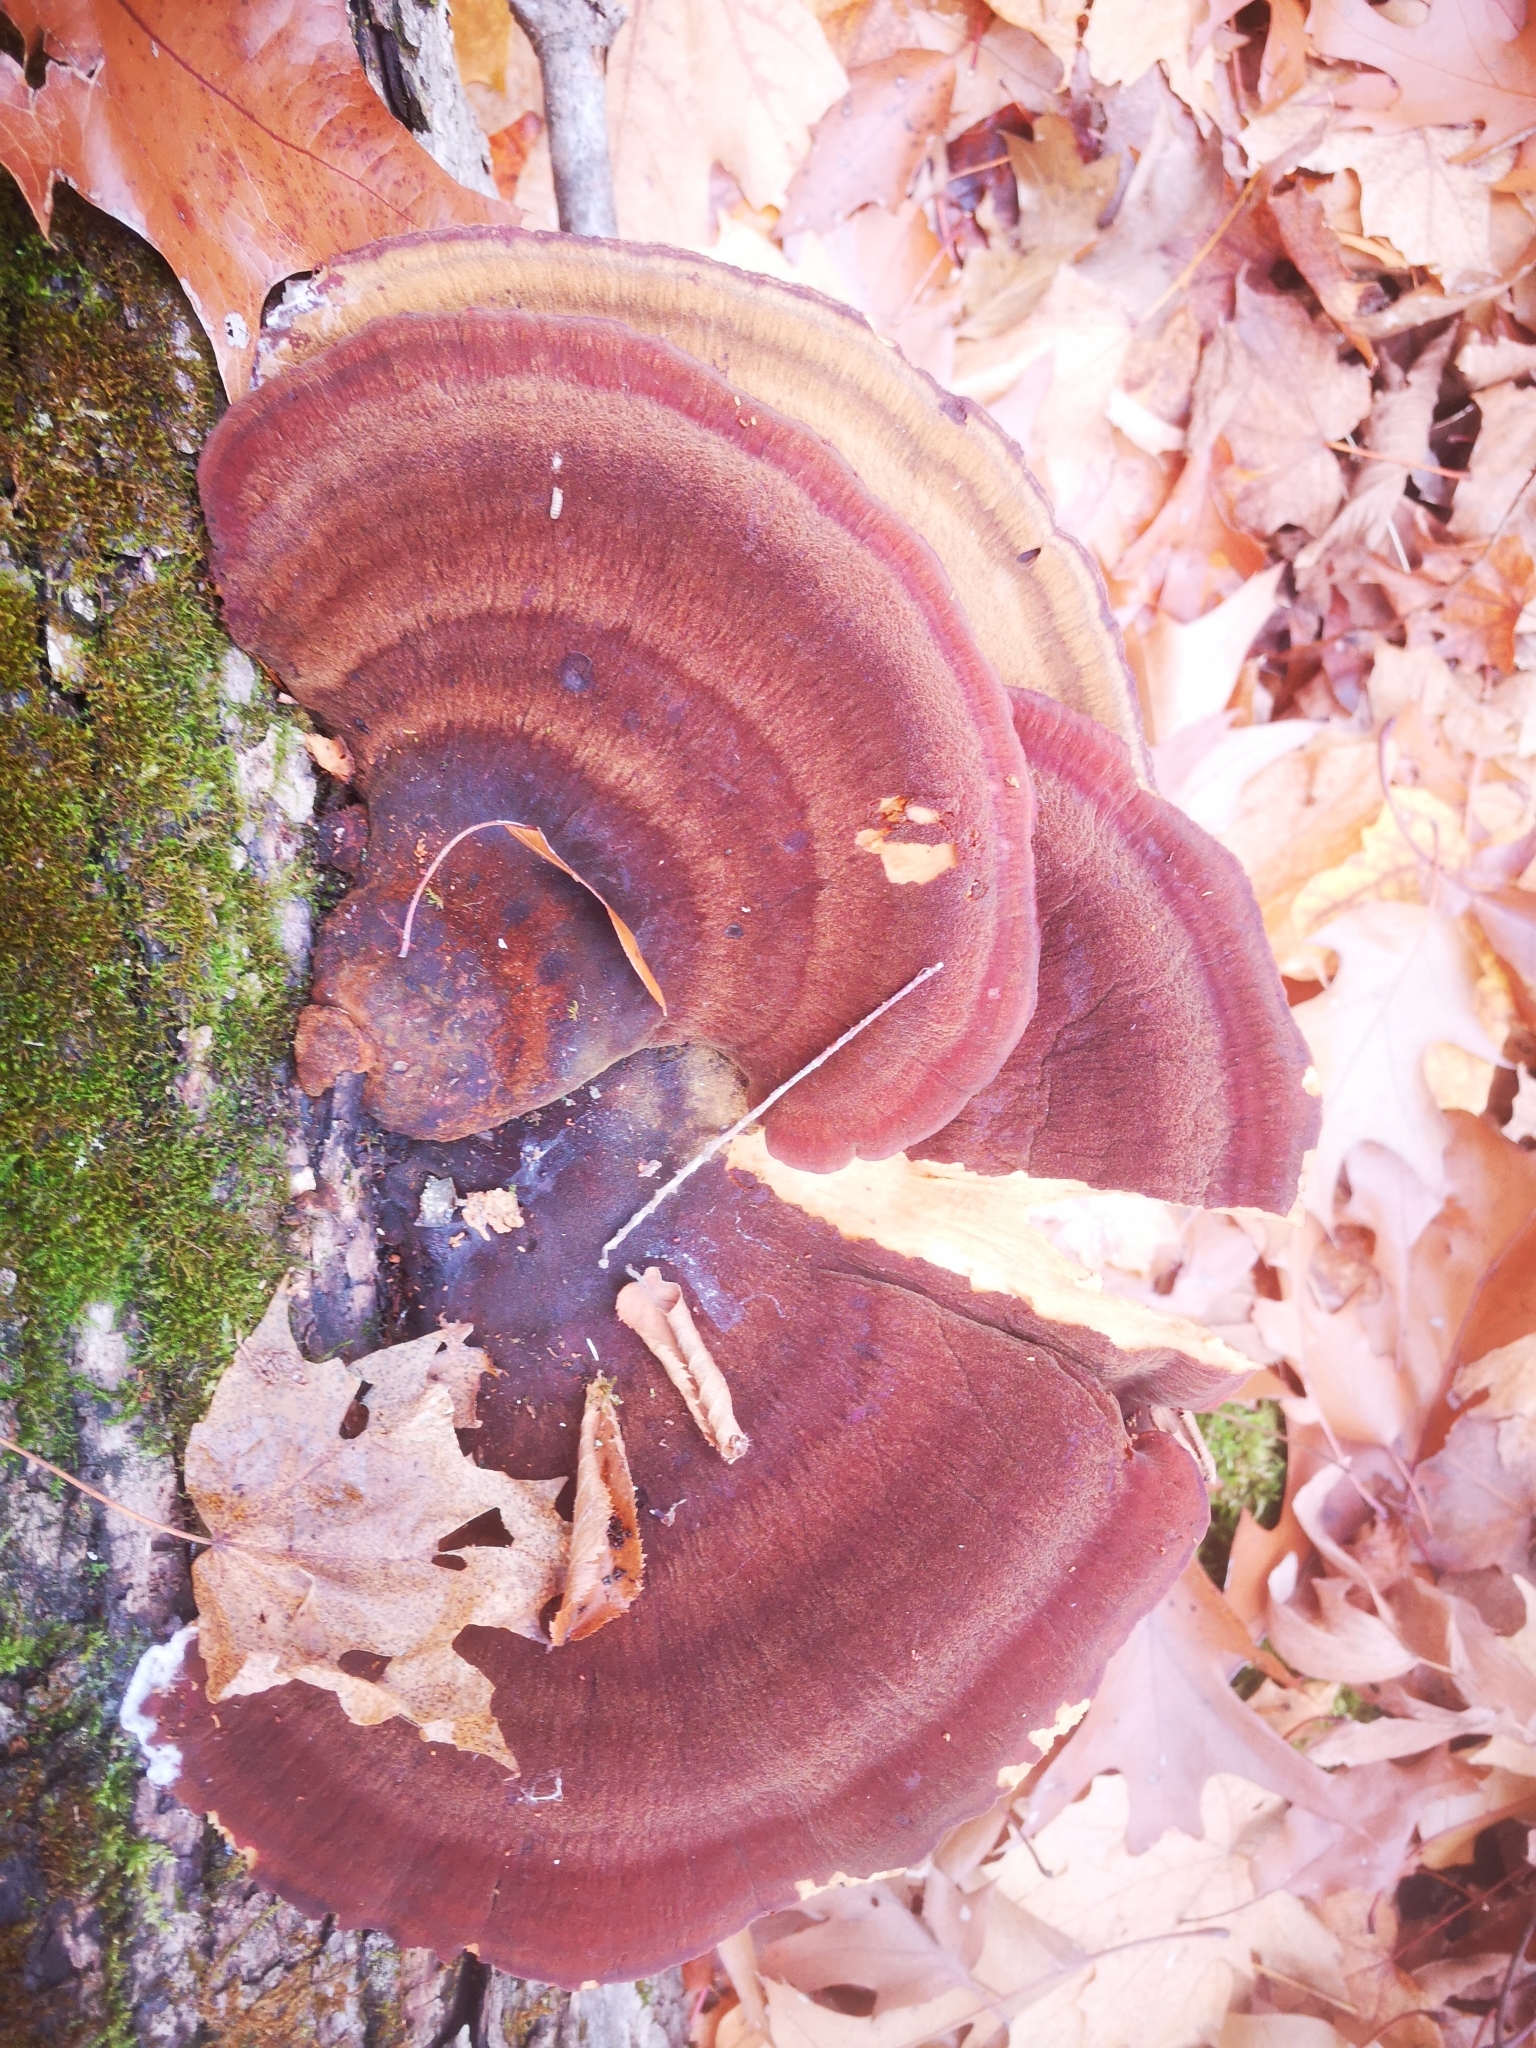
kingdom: Fungi
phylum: Basidiomycota
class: Agaricomycetes
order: Polyporales
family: Ischnodermataceae
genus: Ischnoderma
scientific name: Ischnoderma resinosum
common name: Resinous polypore
